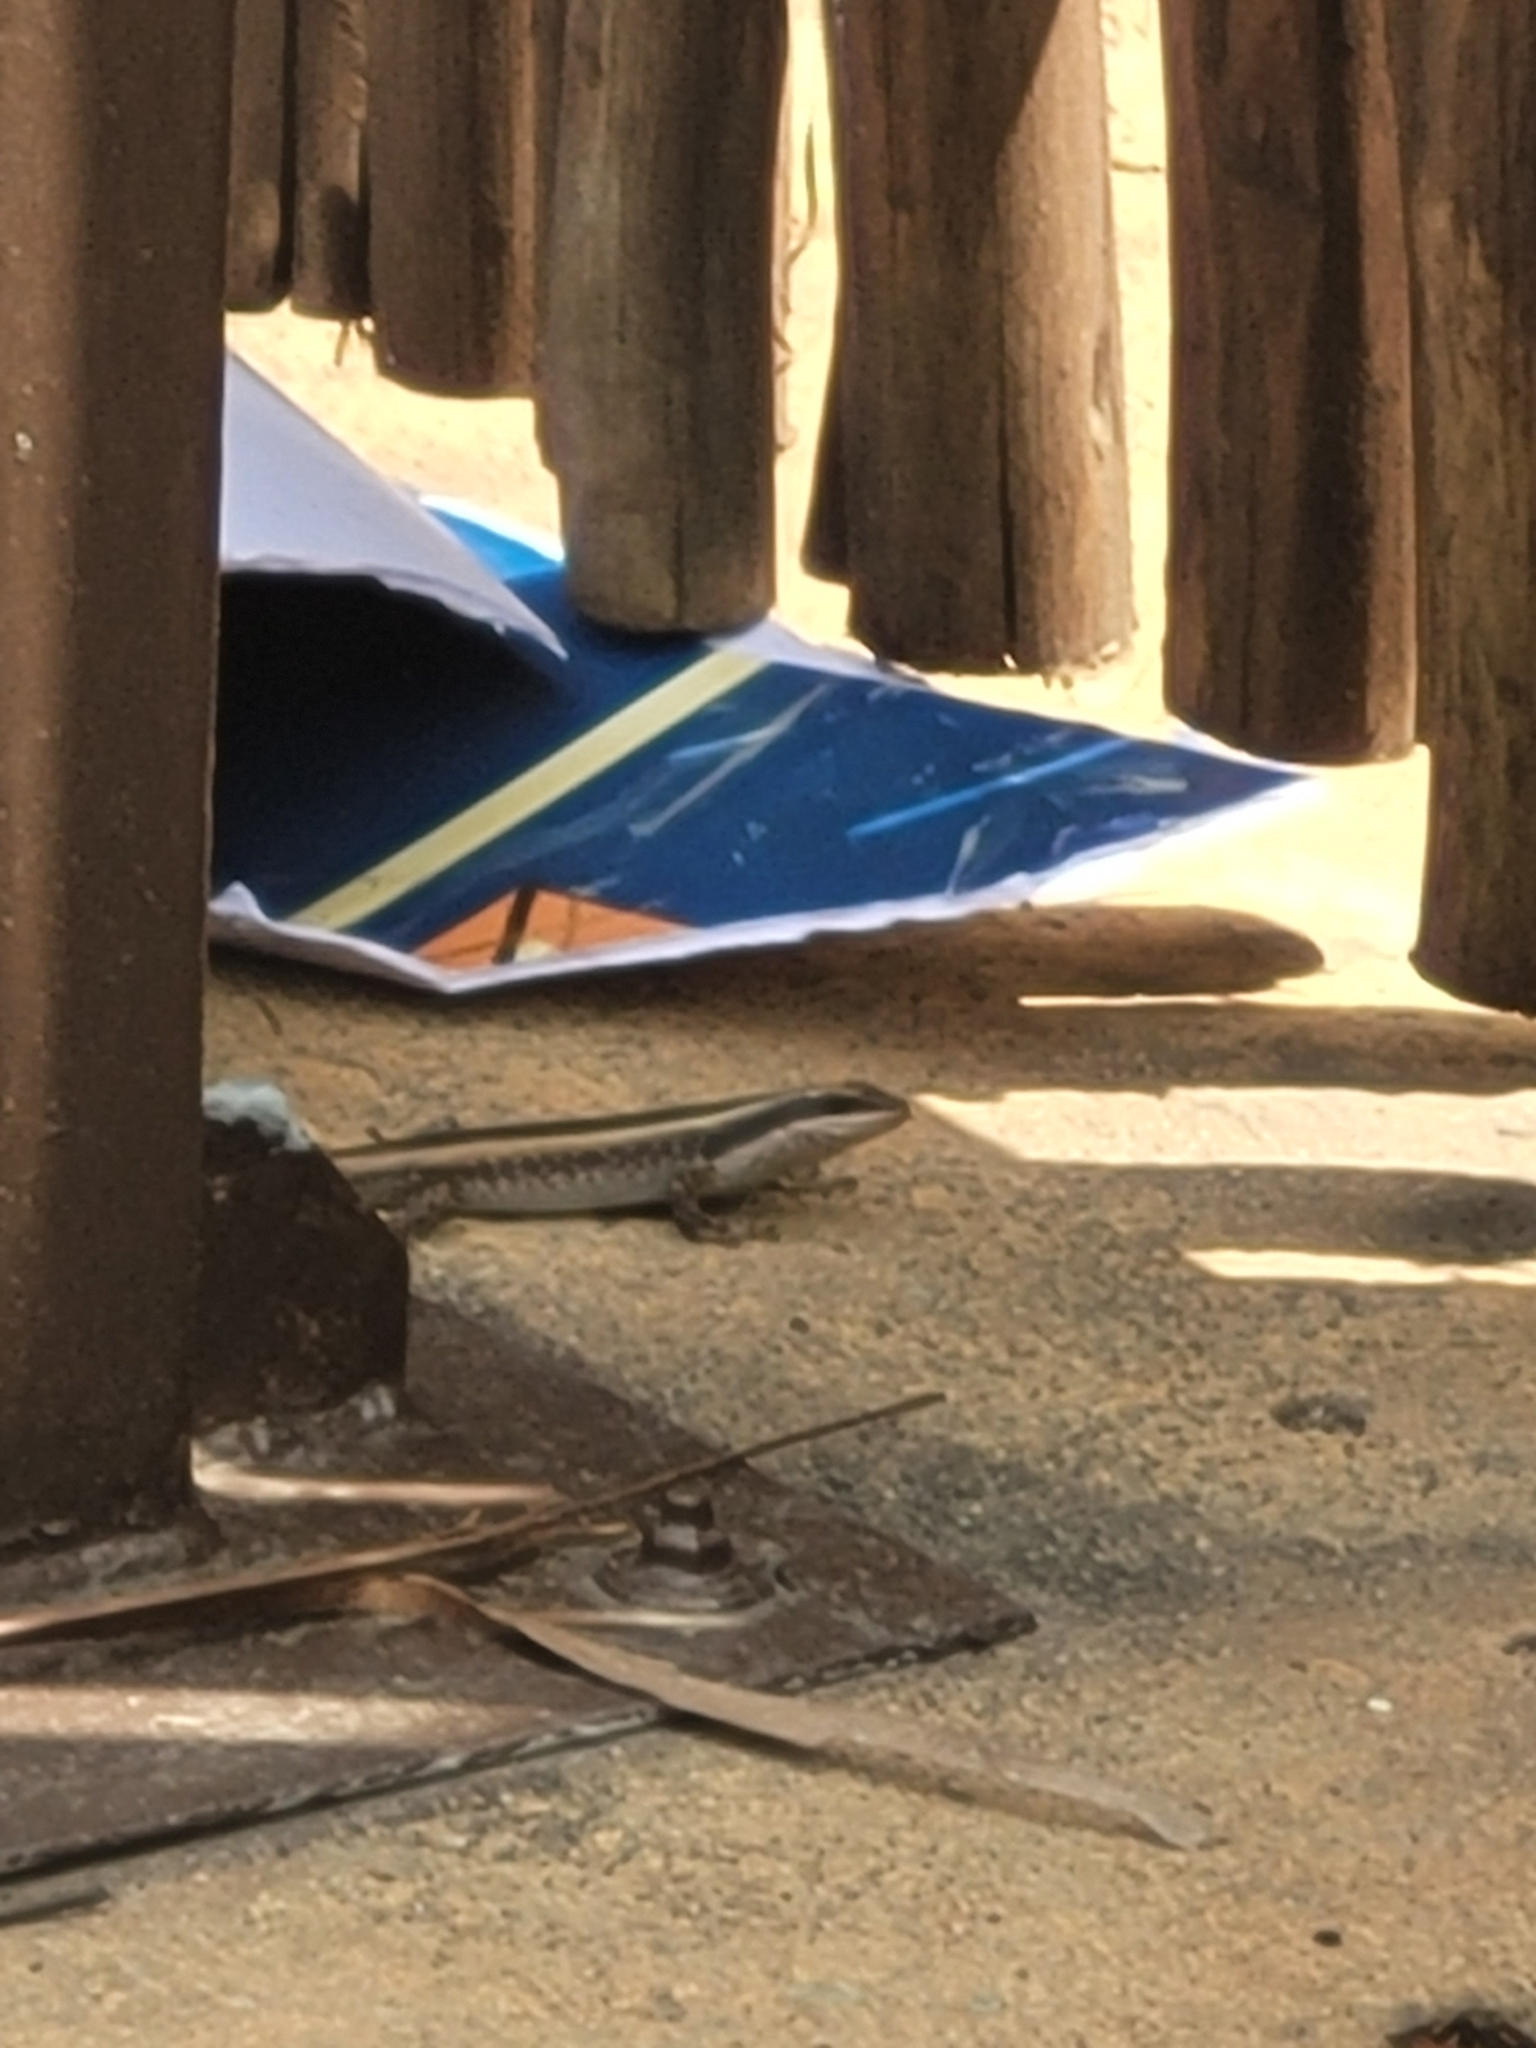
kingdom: Animalia
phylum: Chordata
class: Squamata
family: Scincidae
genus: Trachylepis
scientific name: Trachylepis striata
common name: African striped mabuya
